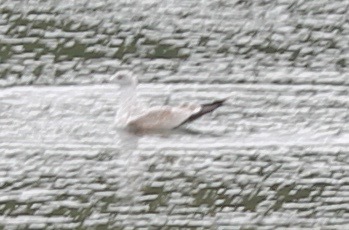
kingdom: Animalia
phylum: Chordata
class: Aves
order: Charadriiformes
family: Laridae
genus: Larus
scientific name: Larus delawarensis
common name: Ring-billed gull
